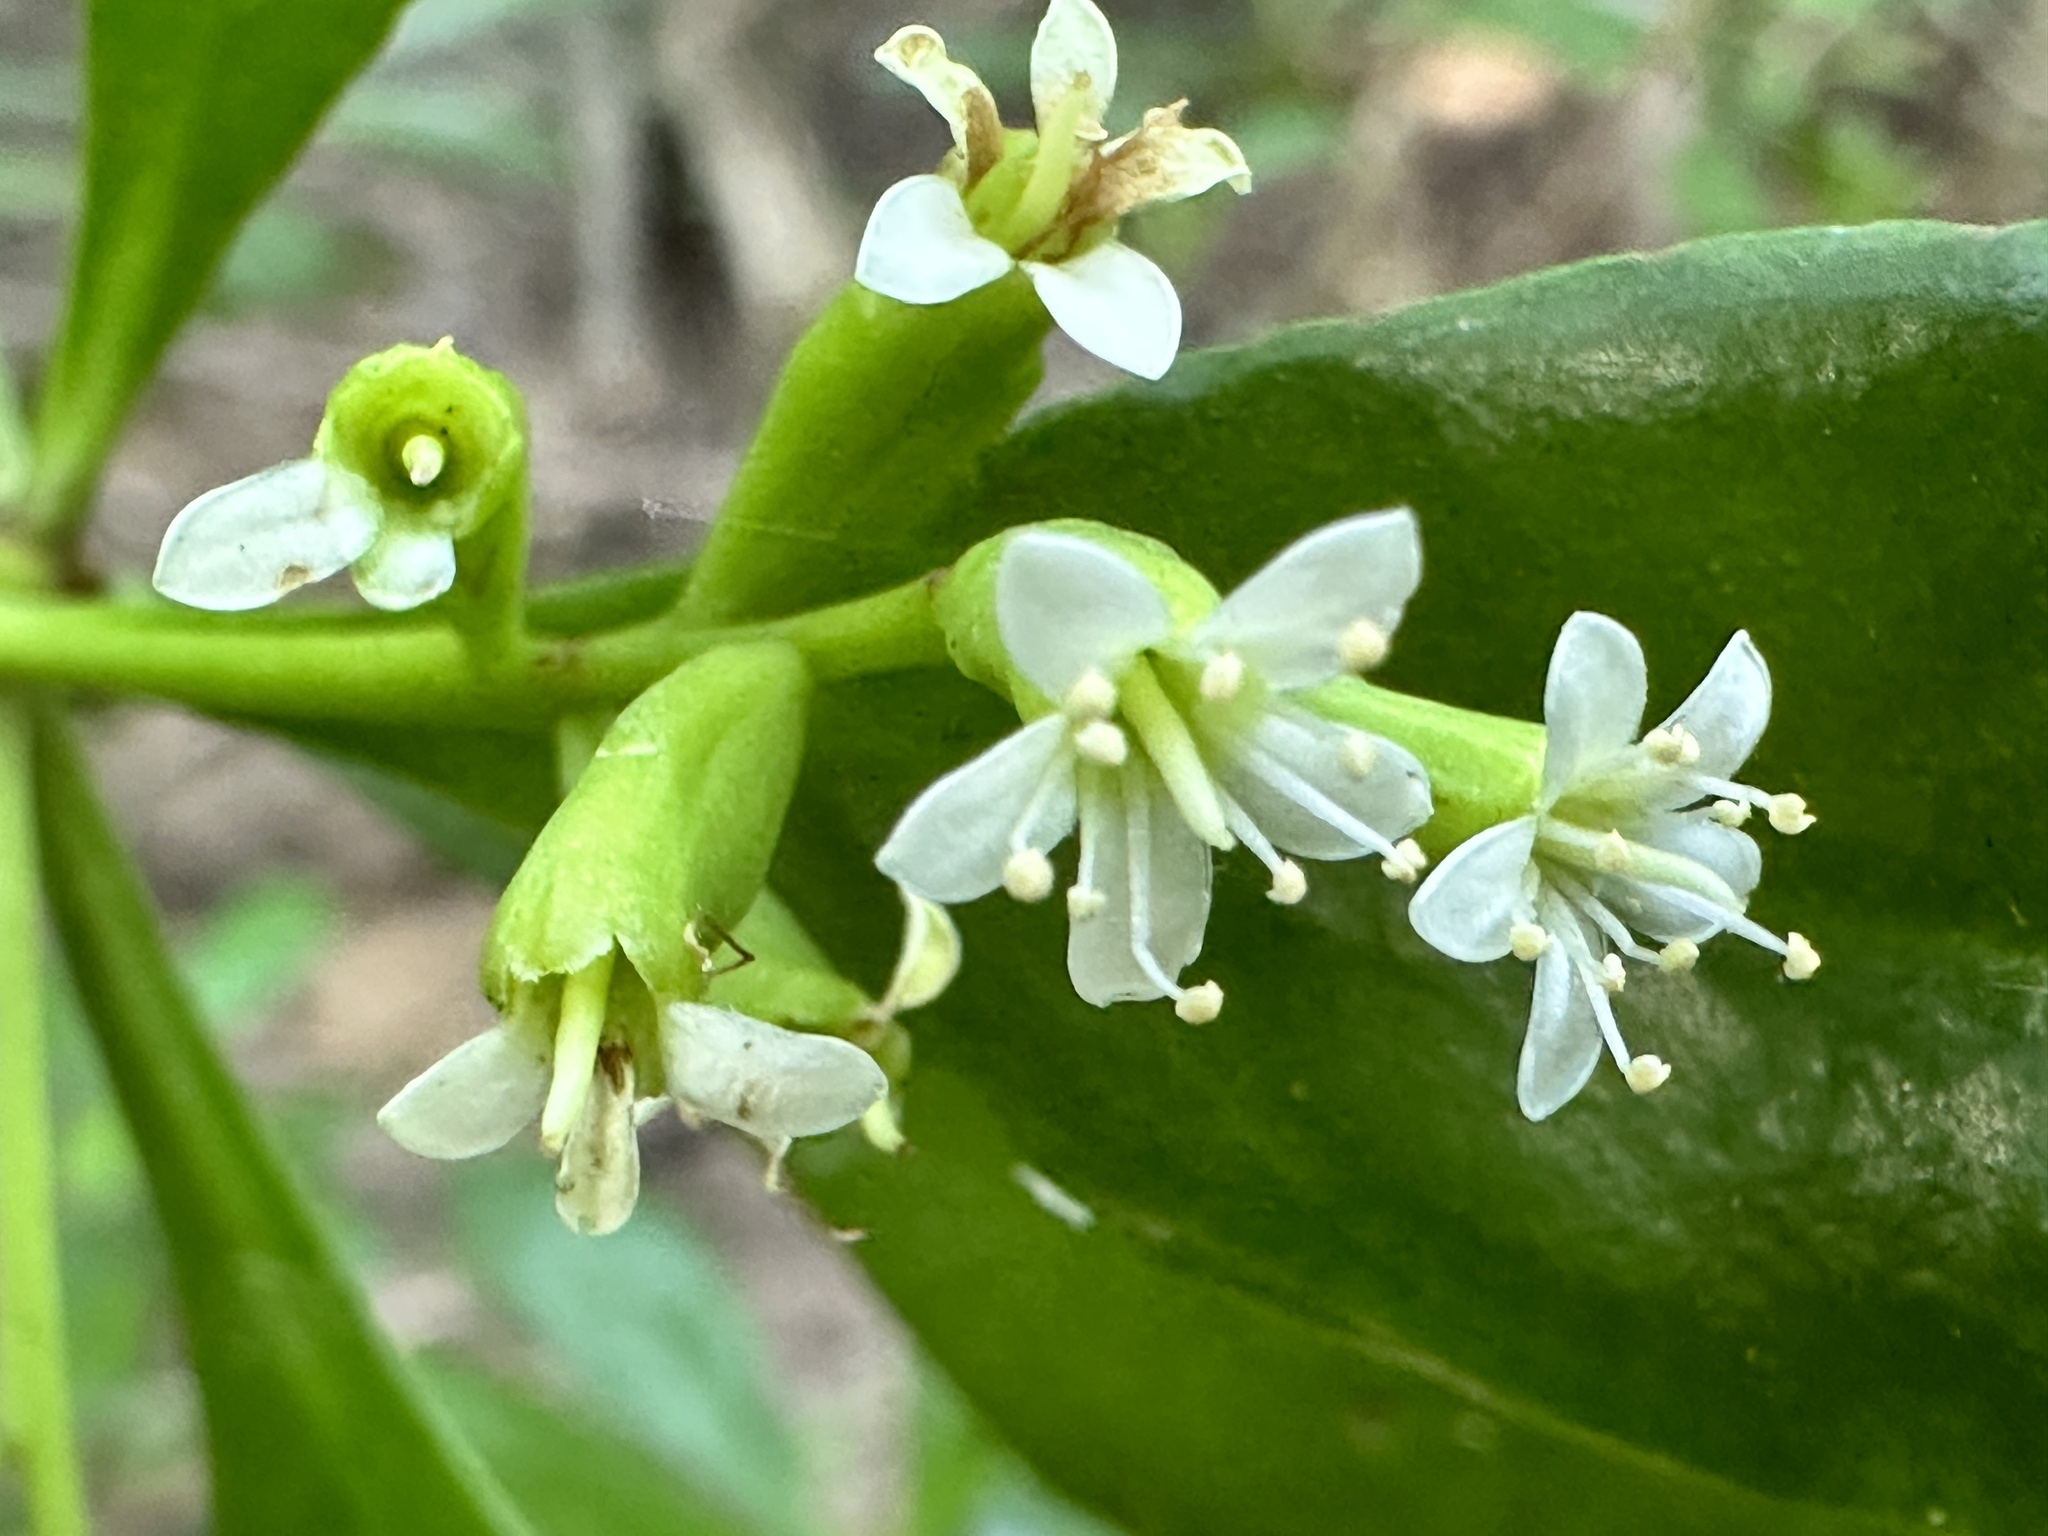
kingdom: Plantae
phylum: Tracheophyta
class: Magnoliopsida
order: Myrtales
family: Combretaceae
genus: Lumnitzera
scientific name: Lumnitzera racemosa
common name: White-flowered black mangrove
